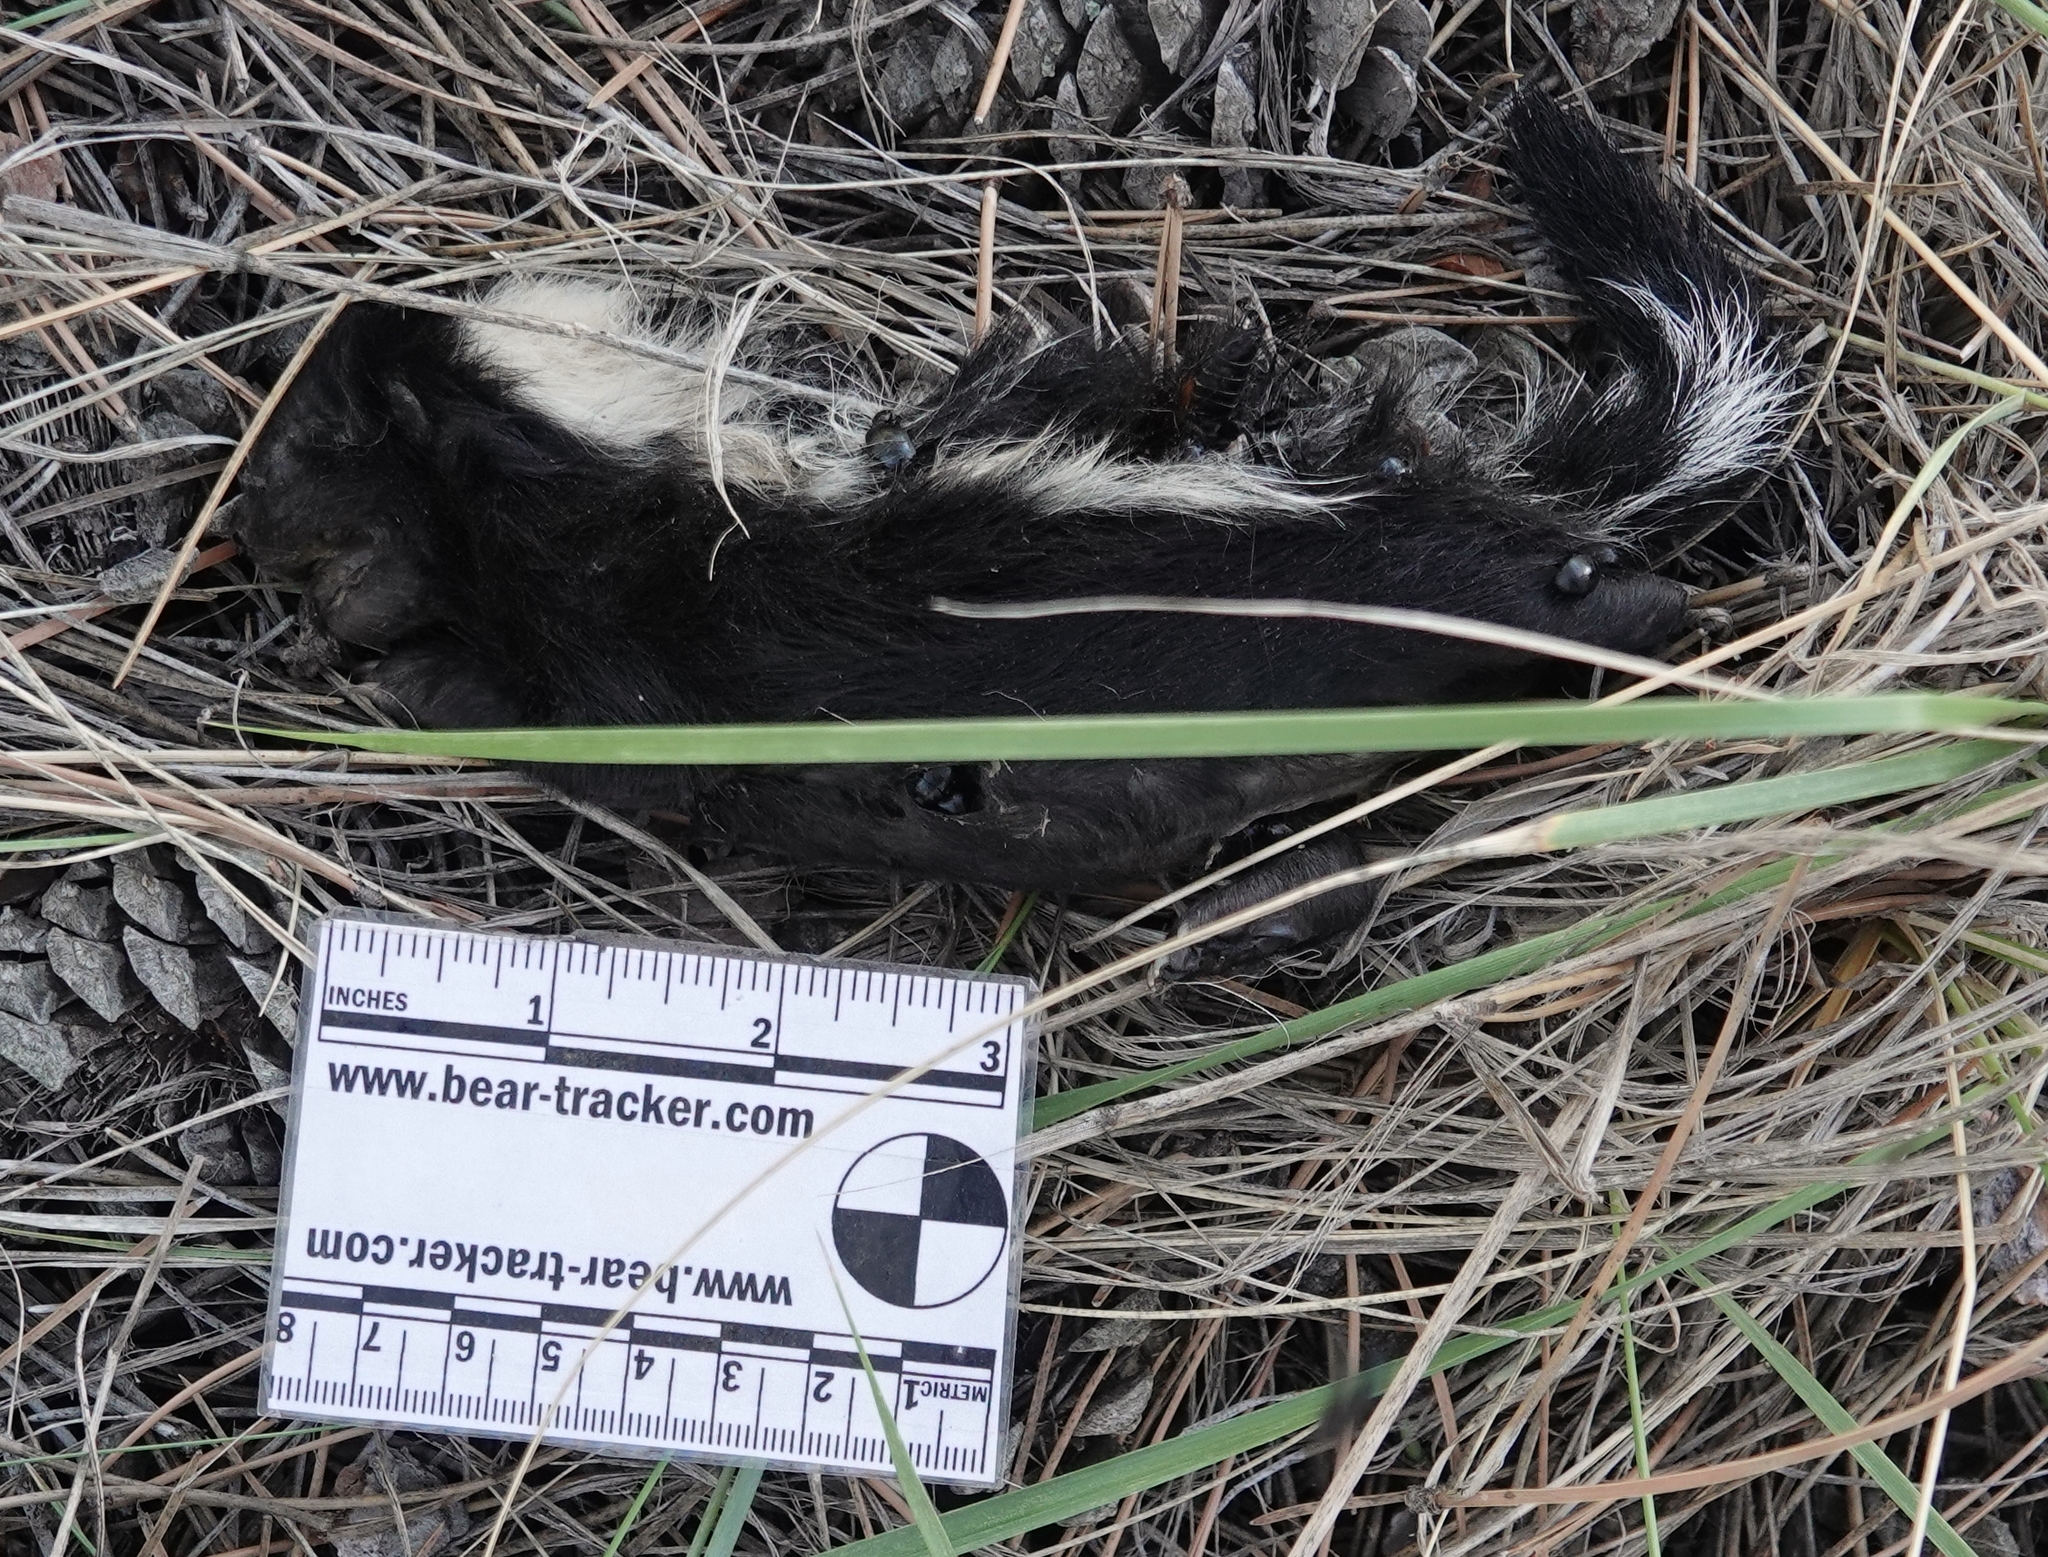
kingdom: Animalia
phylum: Chordata
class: Mammalia
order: Carnivora
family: Mephitidae
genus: Mephitis
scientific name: Mephitis mephitis
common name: Striped skunk
